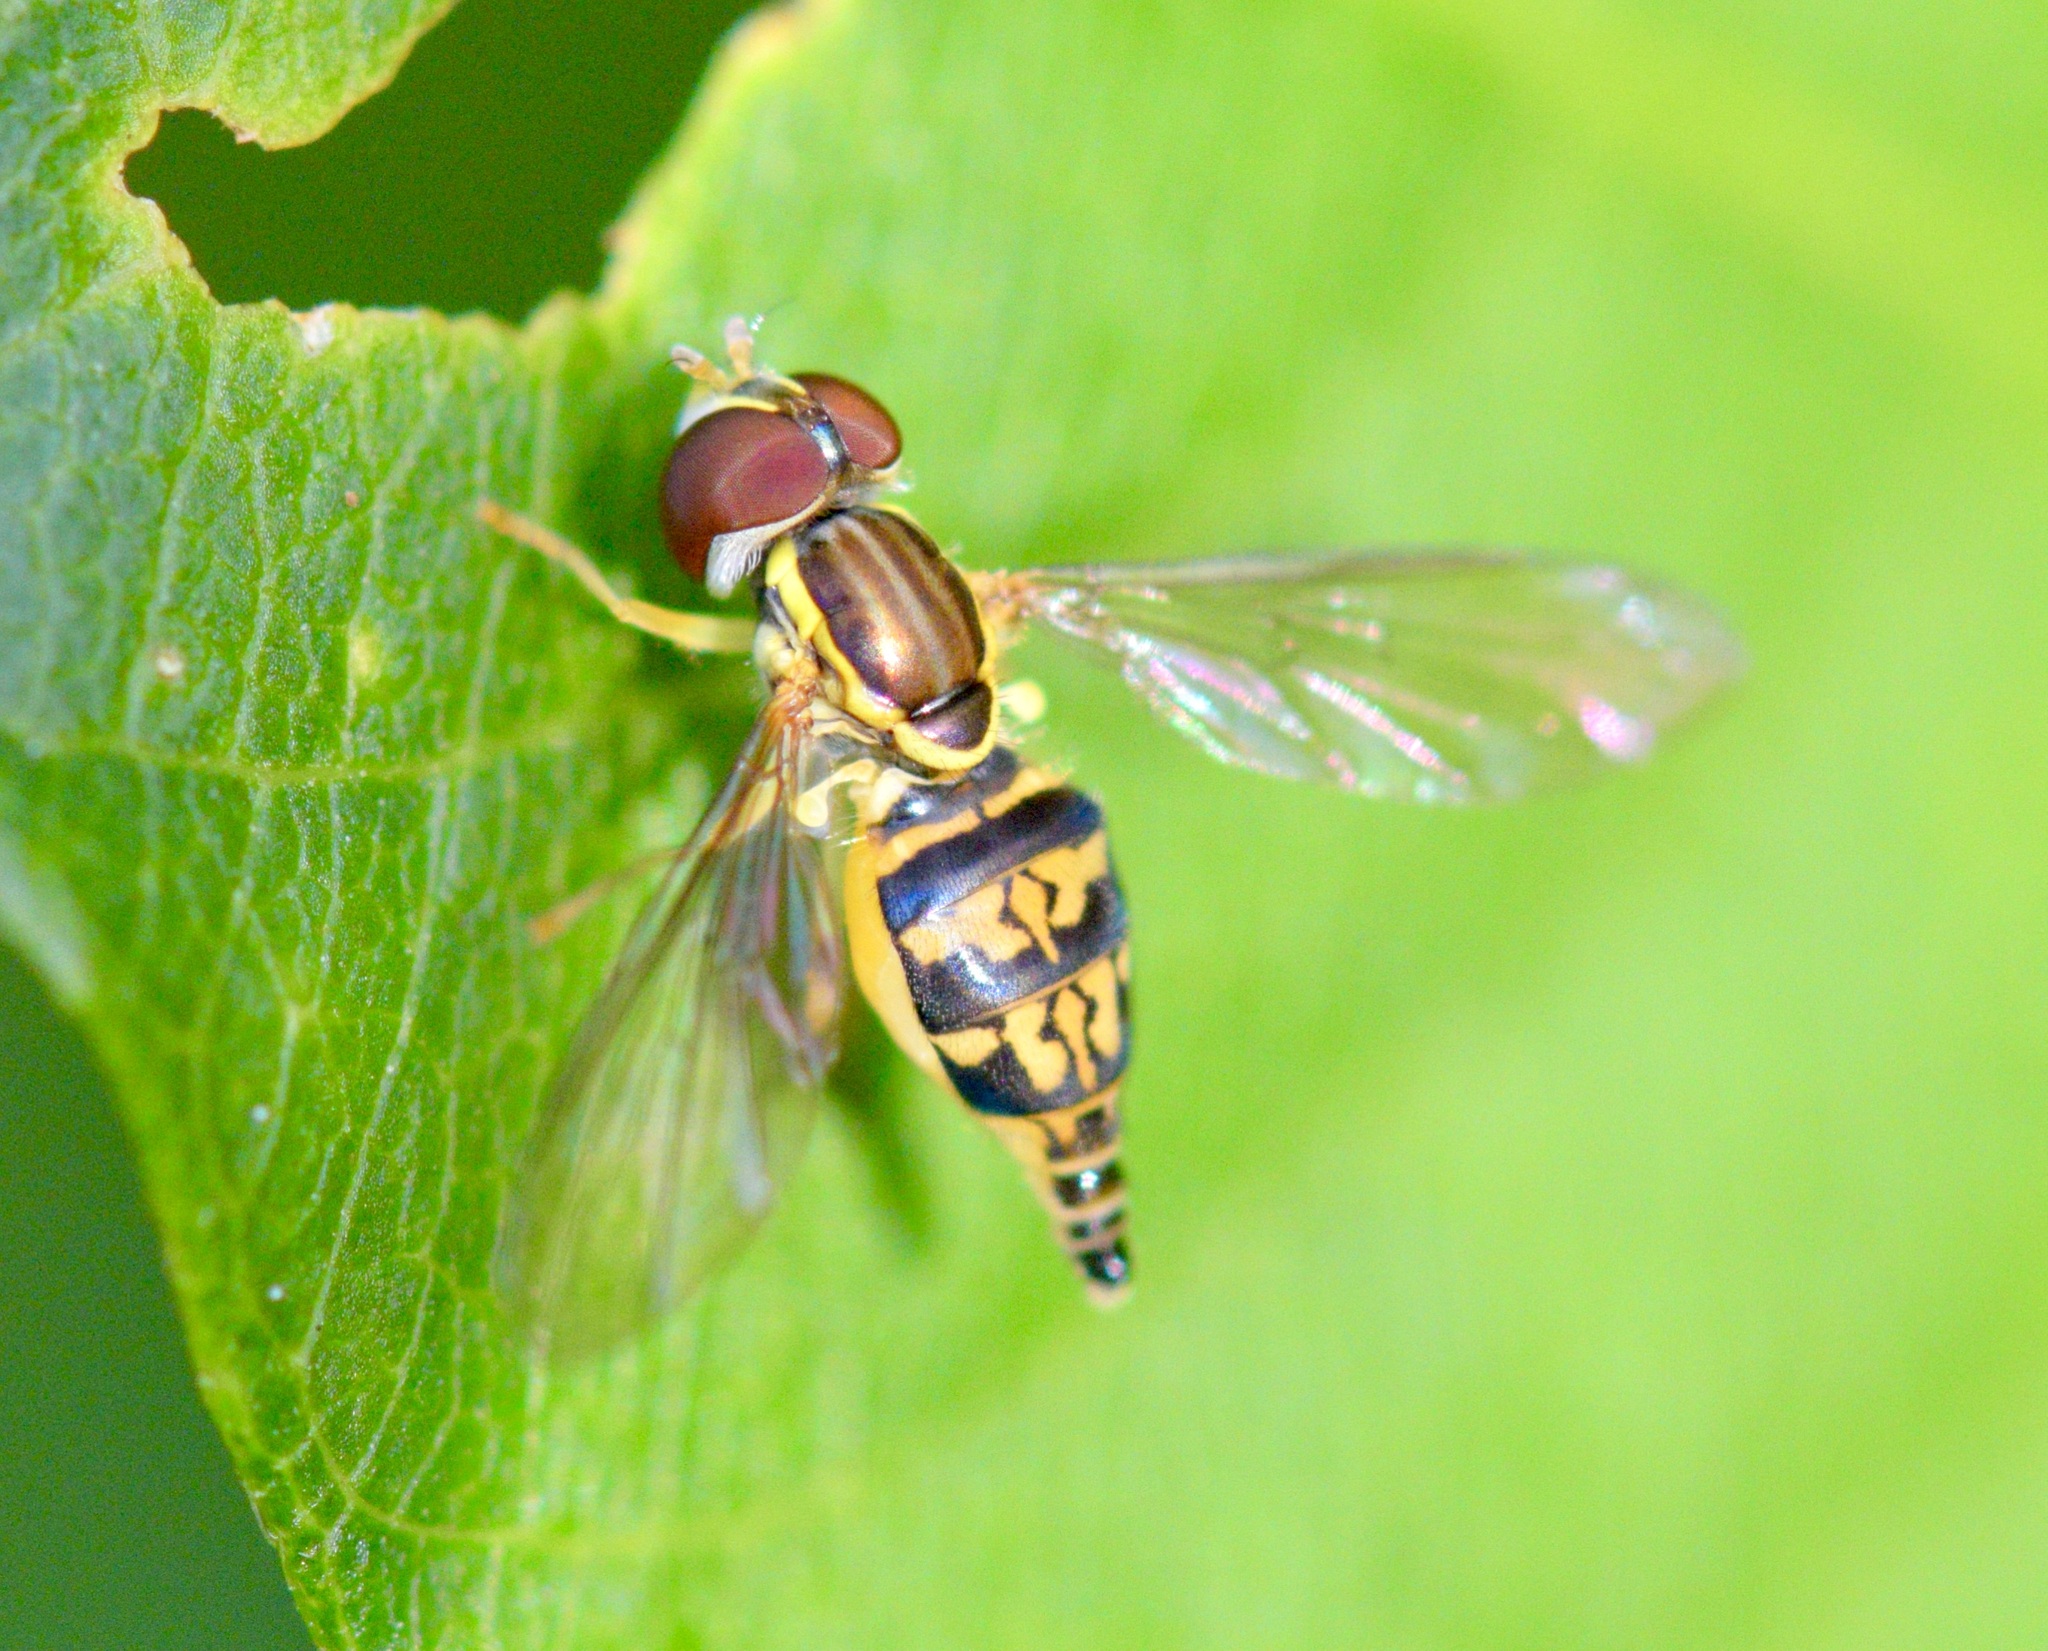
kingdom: Animalia
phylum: Arthropoda
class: Insecta
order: Diptera
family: Syrphidae
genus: Toxomerus
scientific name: Toxomerus geminatus
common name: Eastern calligrapher
